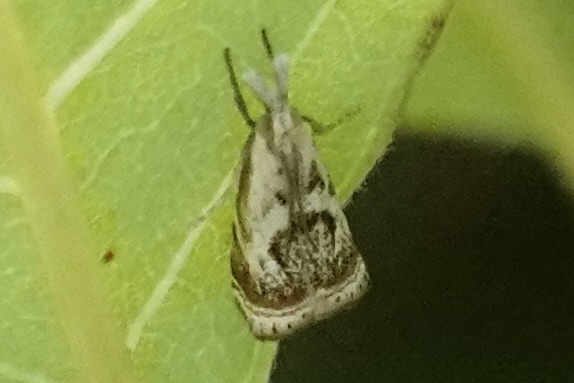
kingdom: Animalia
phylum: Arthropoda
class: Insecta
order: Lepidoptera
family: Crambidae
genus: Microcrambus
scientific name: Microcrambus elegans
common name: Elegant grass-veneer
